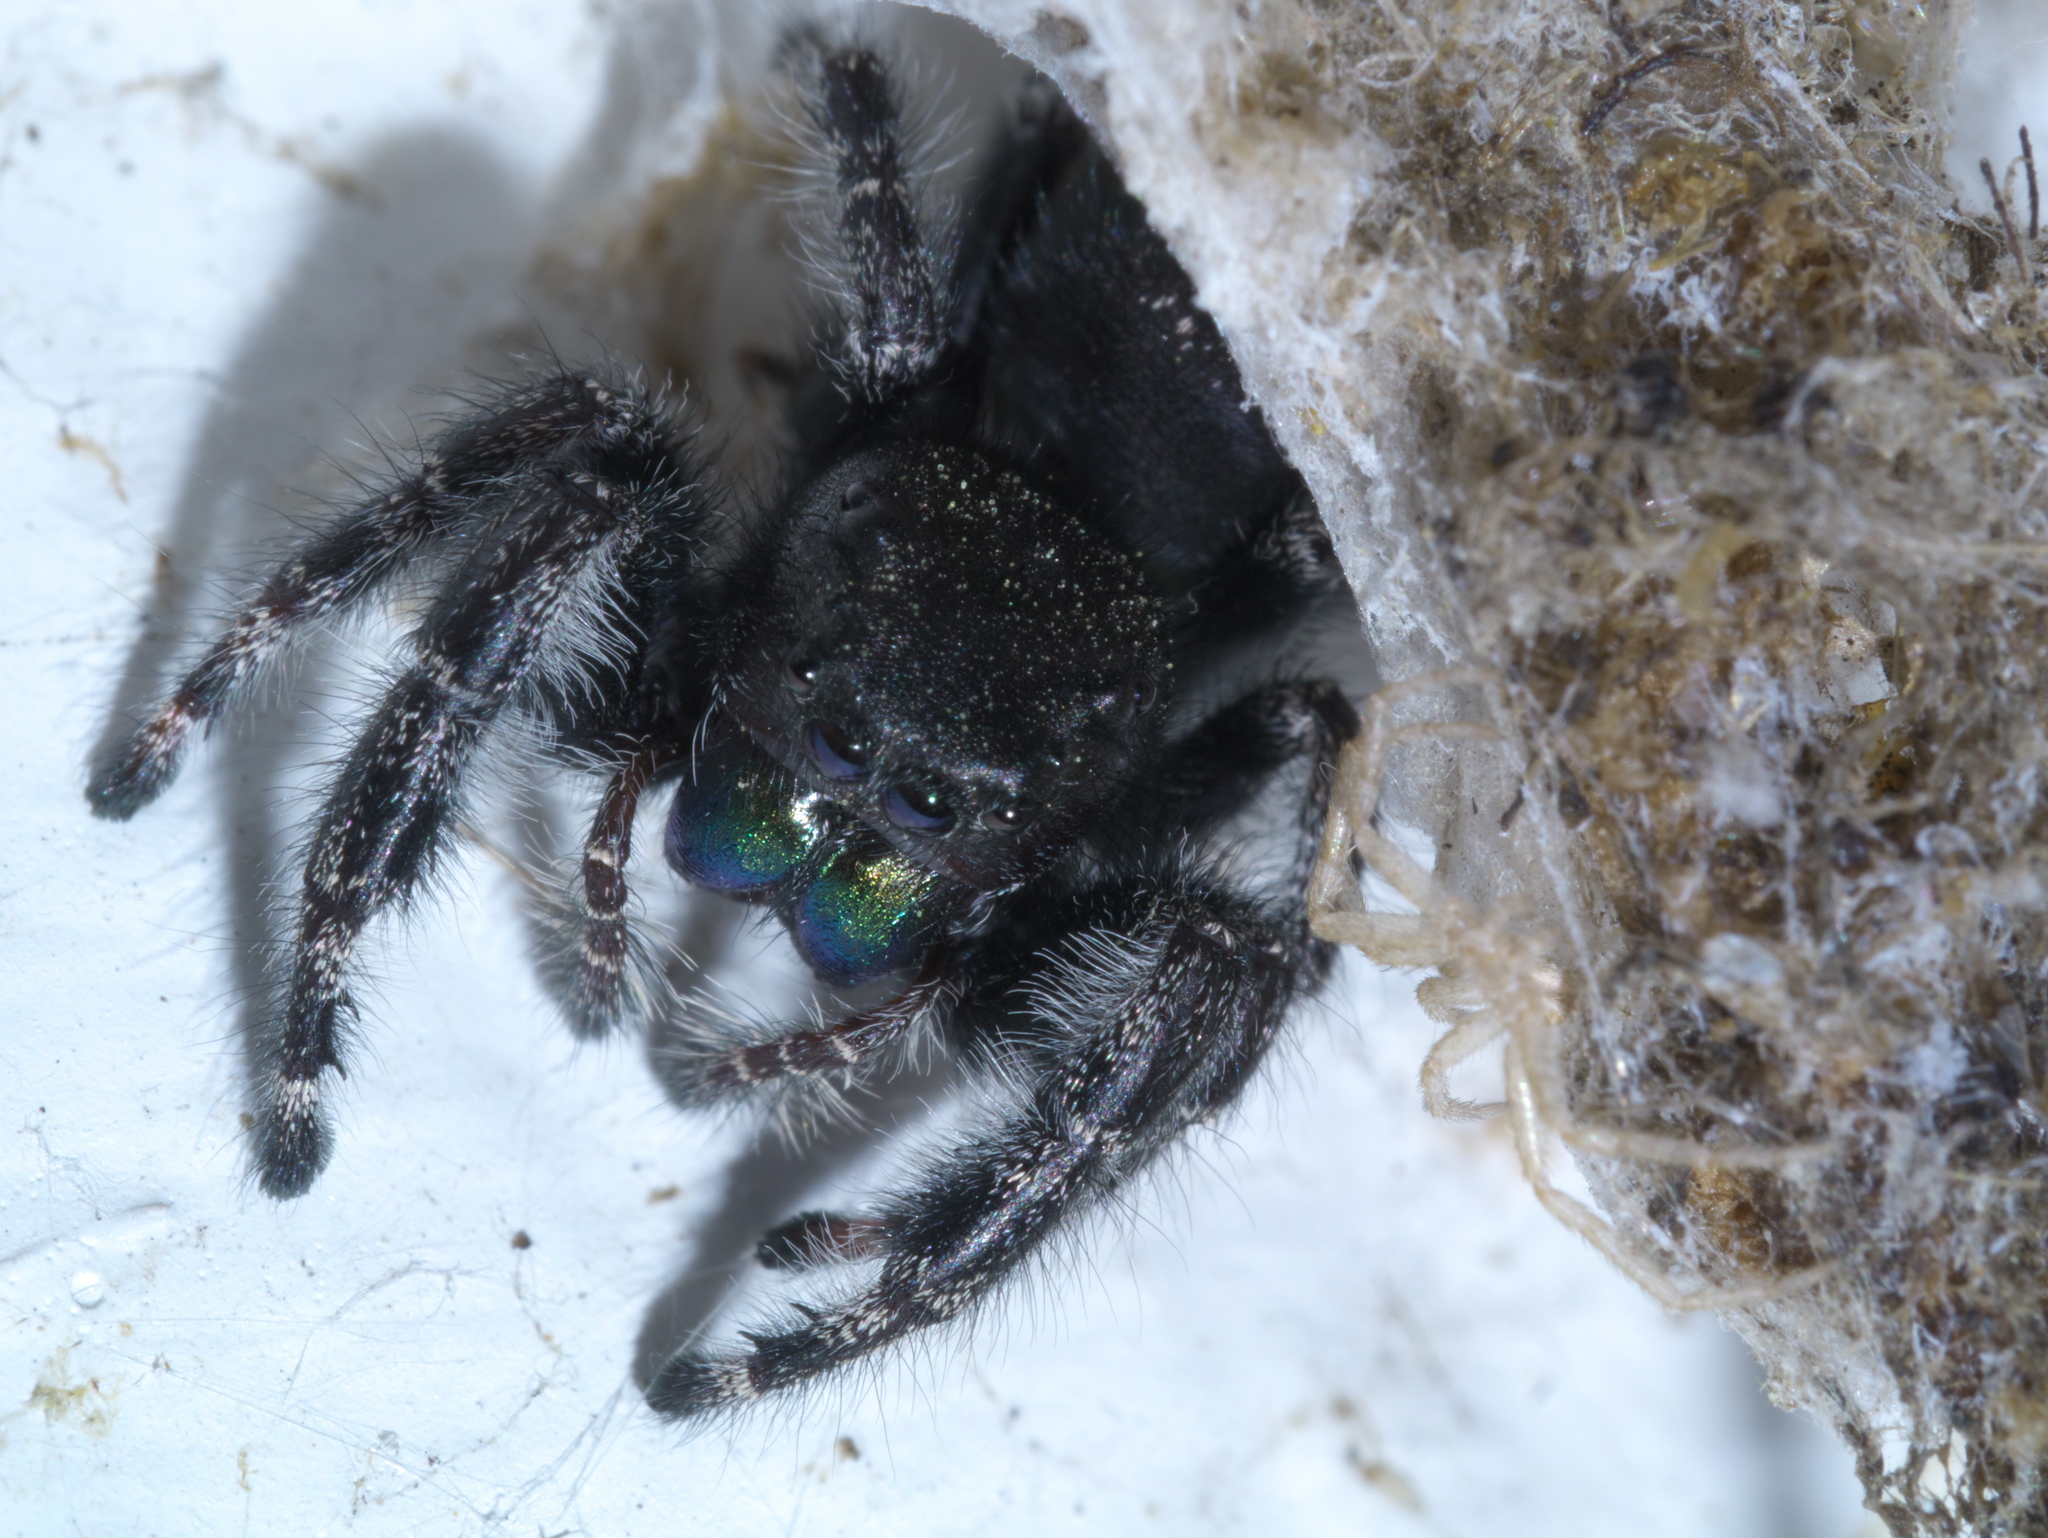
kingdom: Animalia
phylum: Arthropoda
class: Arachnida
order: Araneae
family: Salticidae
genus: Phidippus
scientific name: Phidippus audax
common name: Bold jumper
